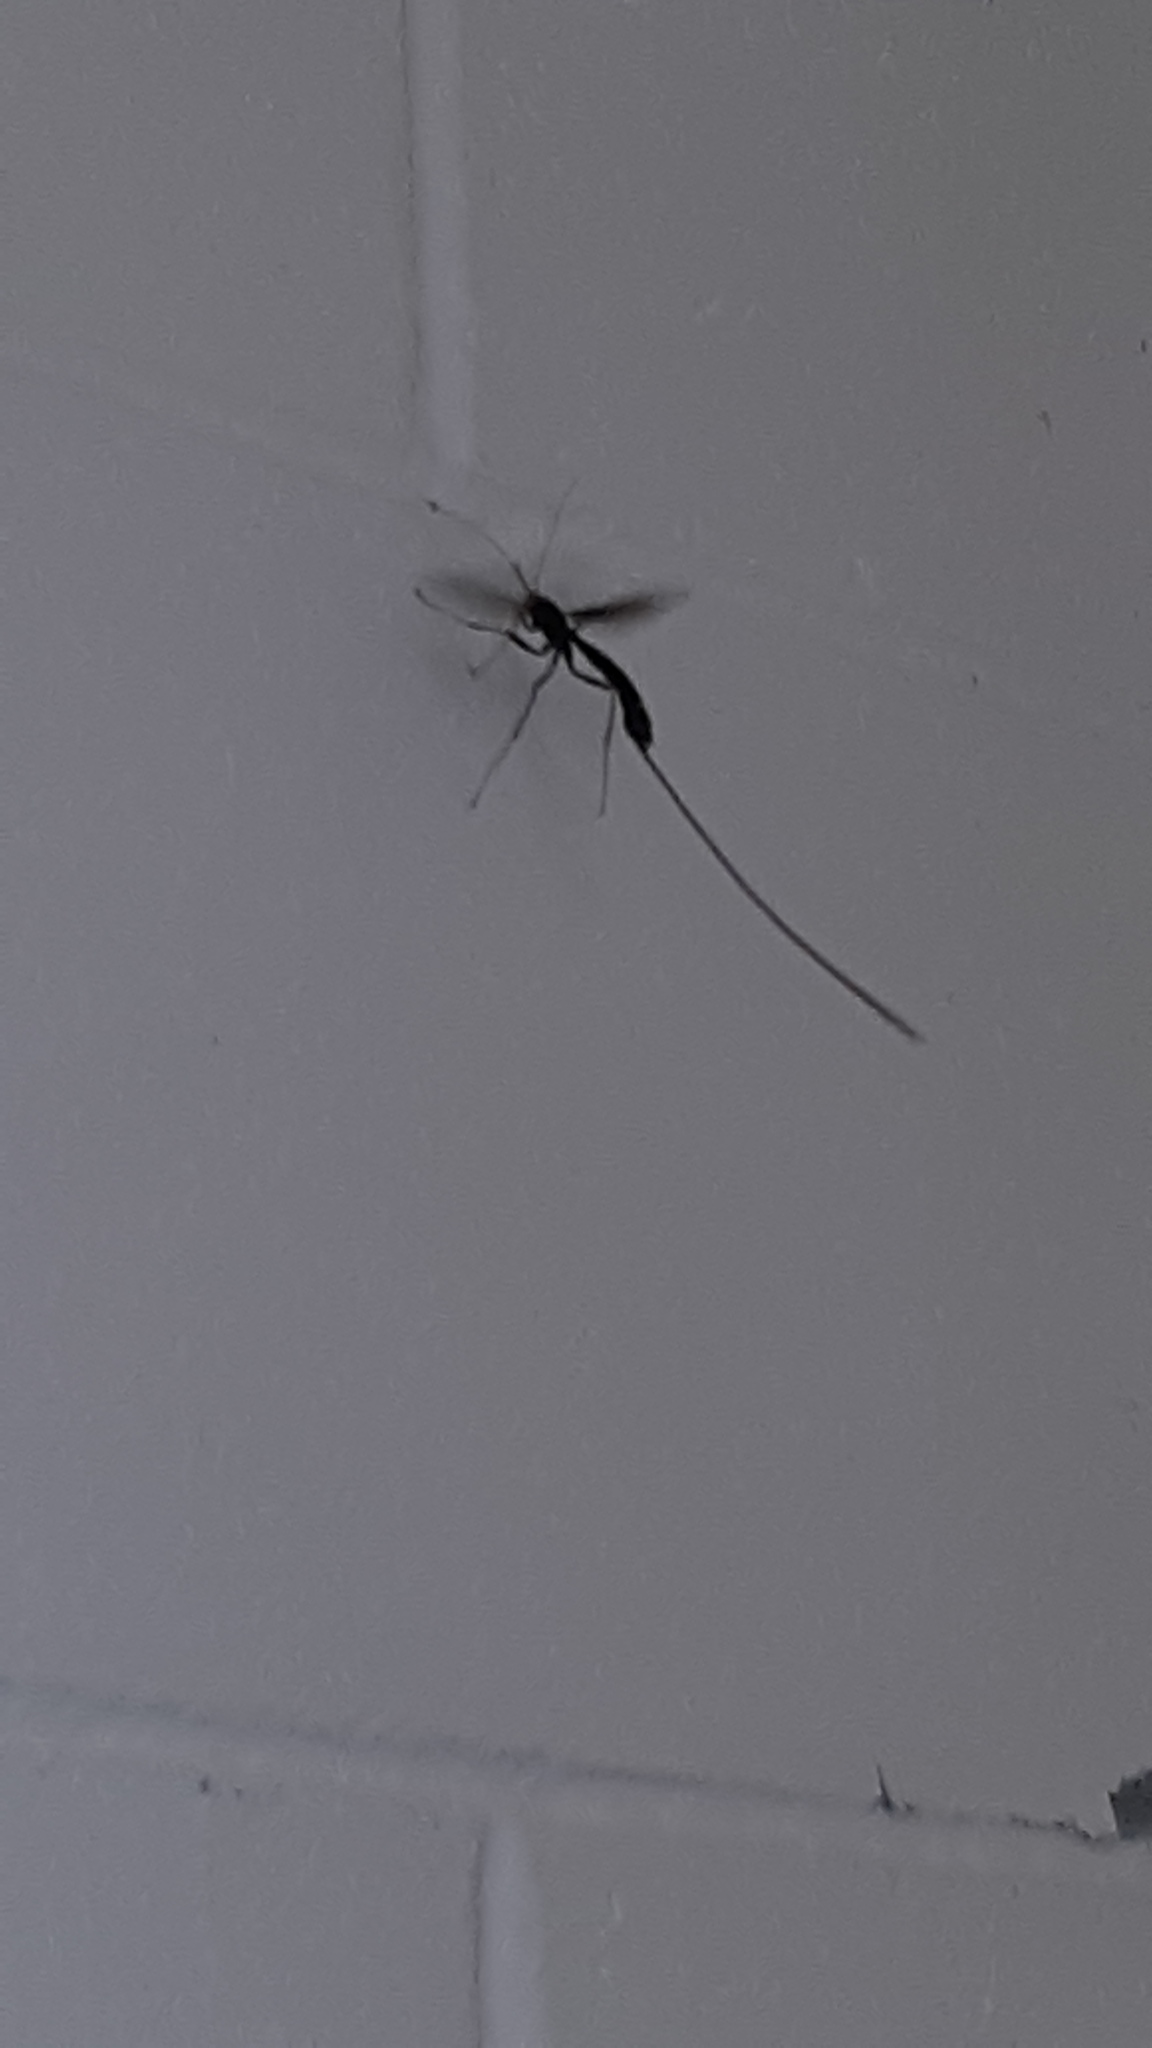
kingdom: Animalia
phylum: Arthropoda
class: Insecta
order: Hymenoptera
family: Ichneumonidae
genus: Megarhyssa
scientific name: Megarhyssa
